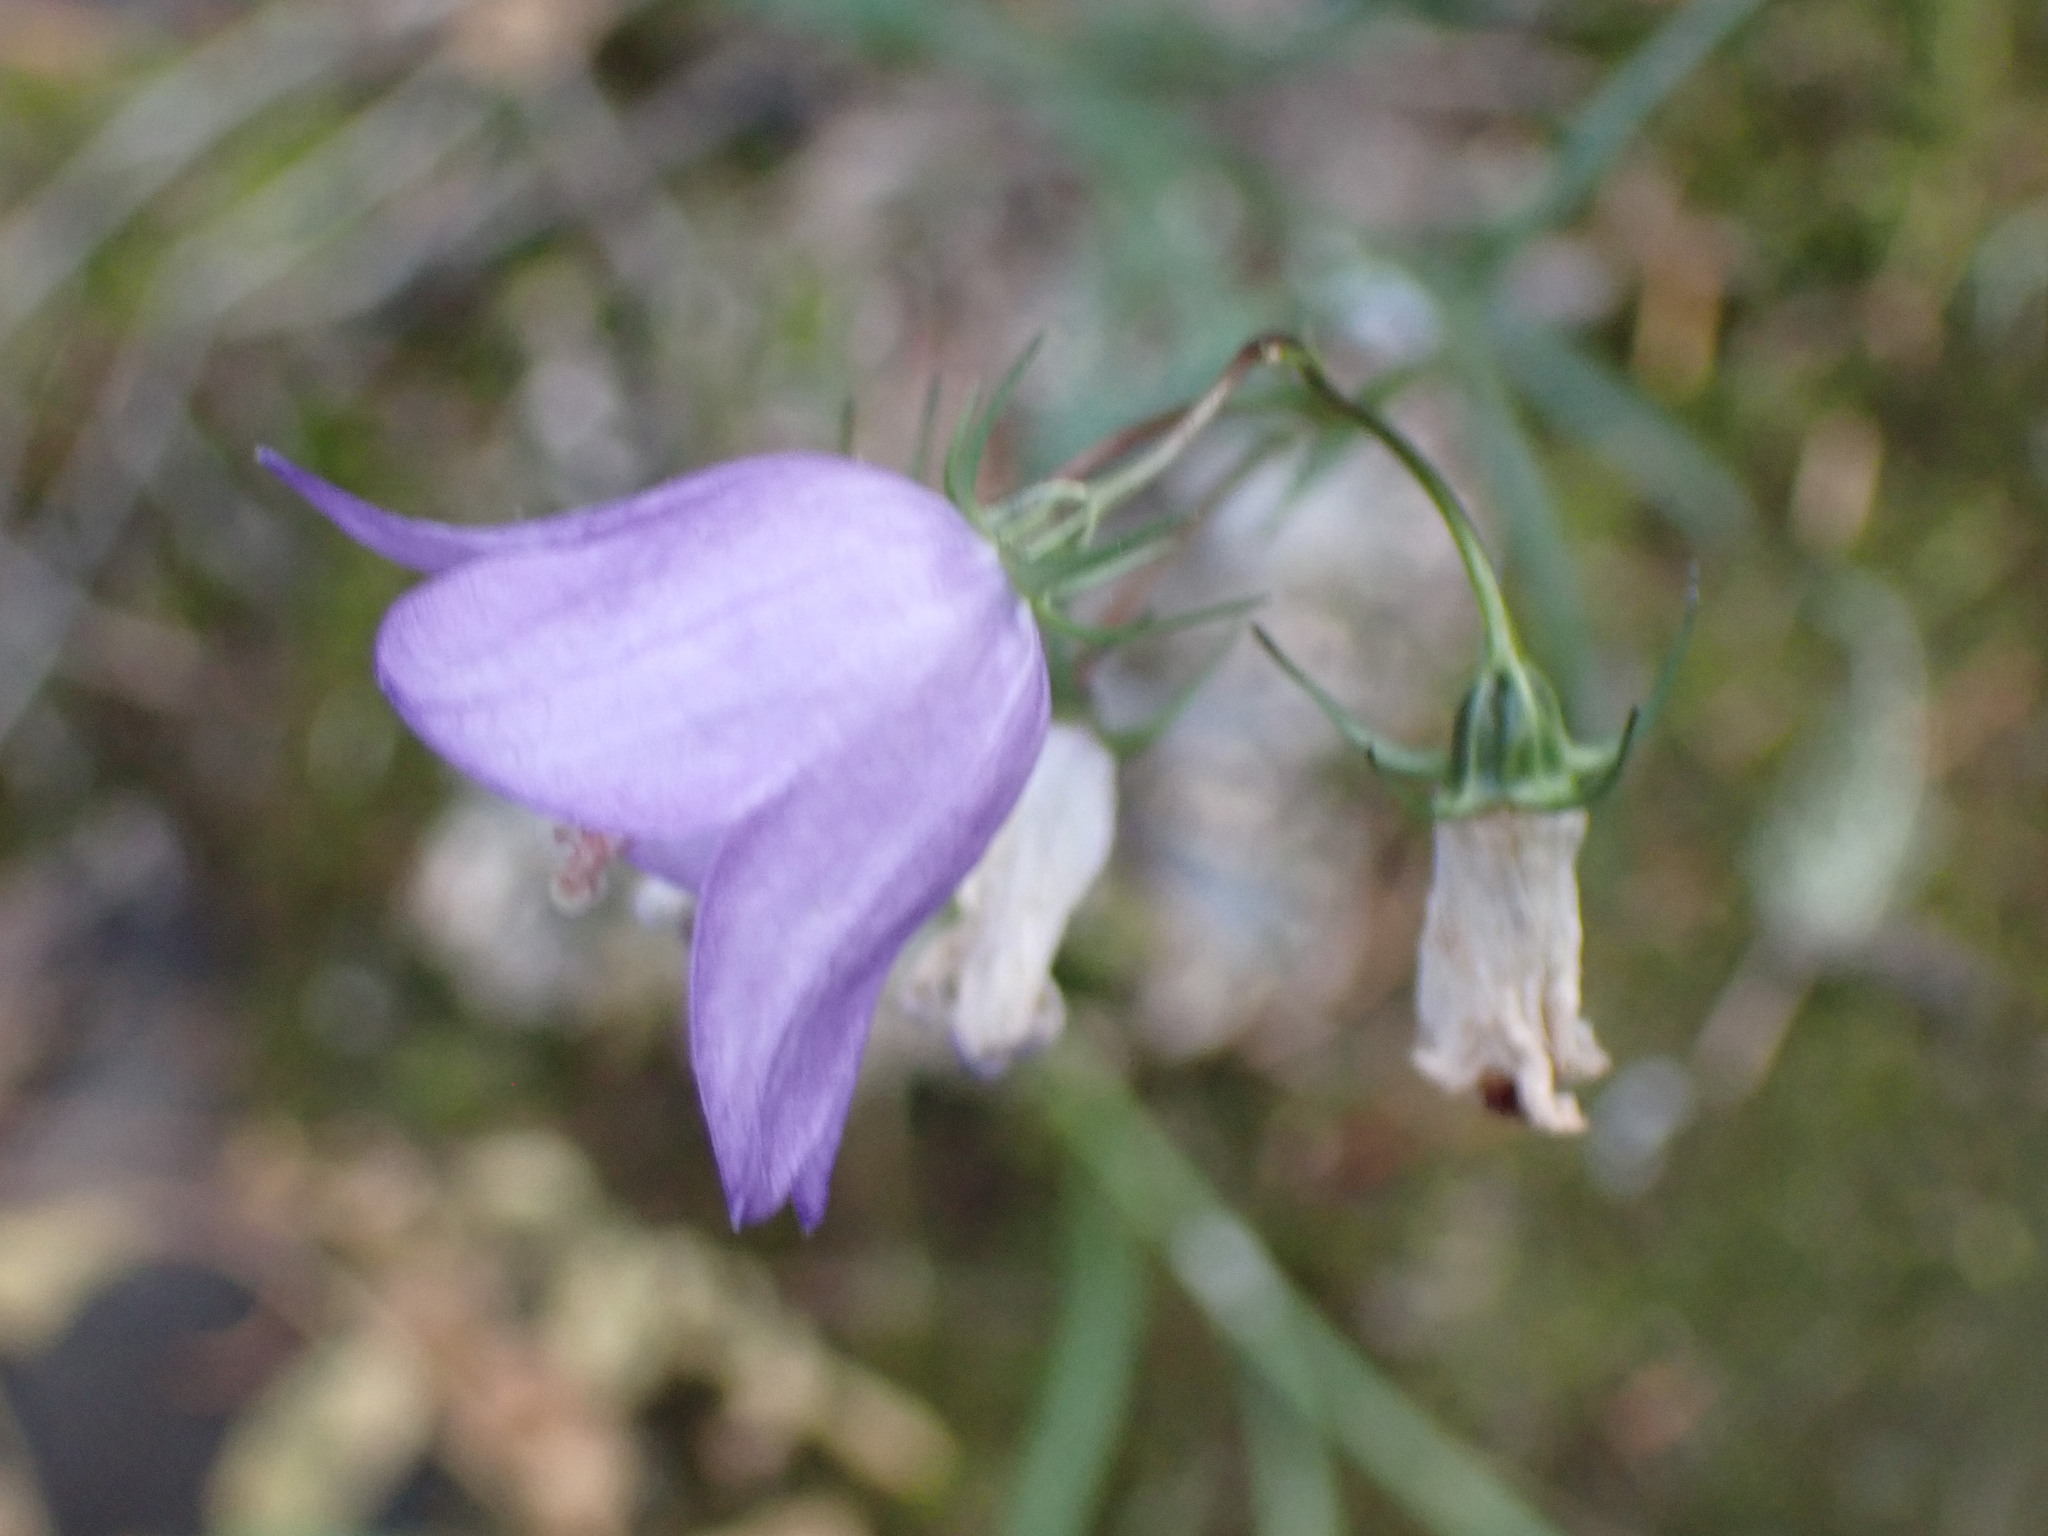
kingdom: Plantae
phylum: Tracheophyta
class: Magnoliopsida
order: Asterales
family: Campanulaceae
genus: Campanula
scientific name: Campanula alaskana
